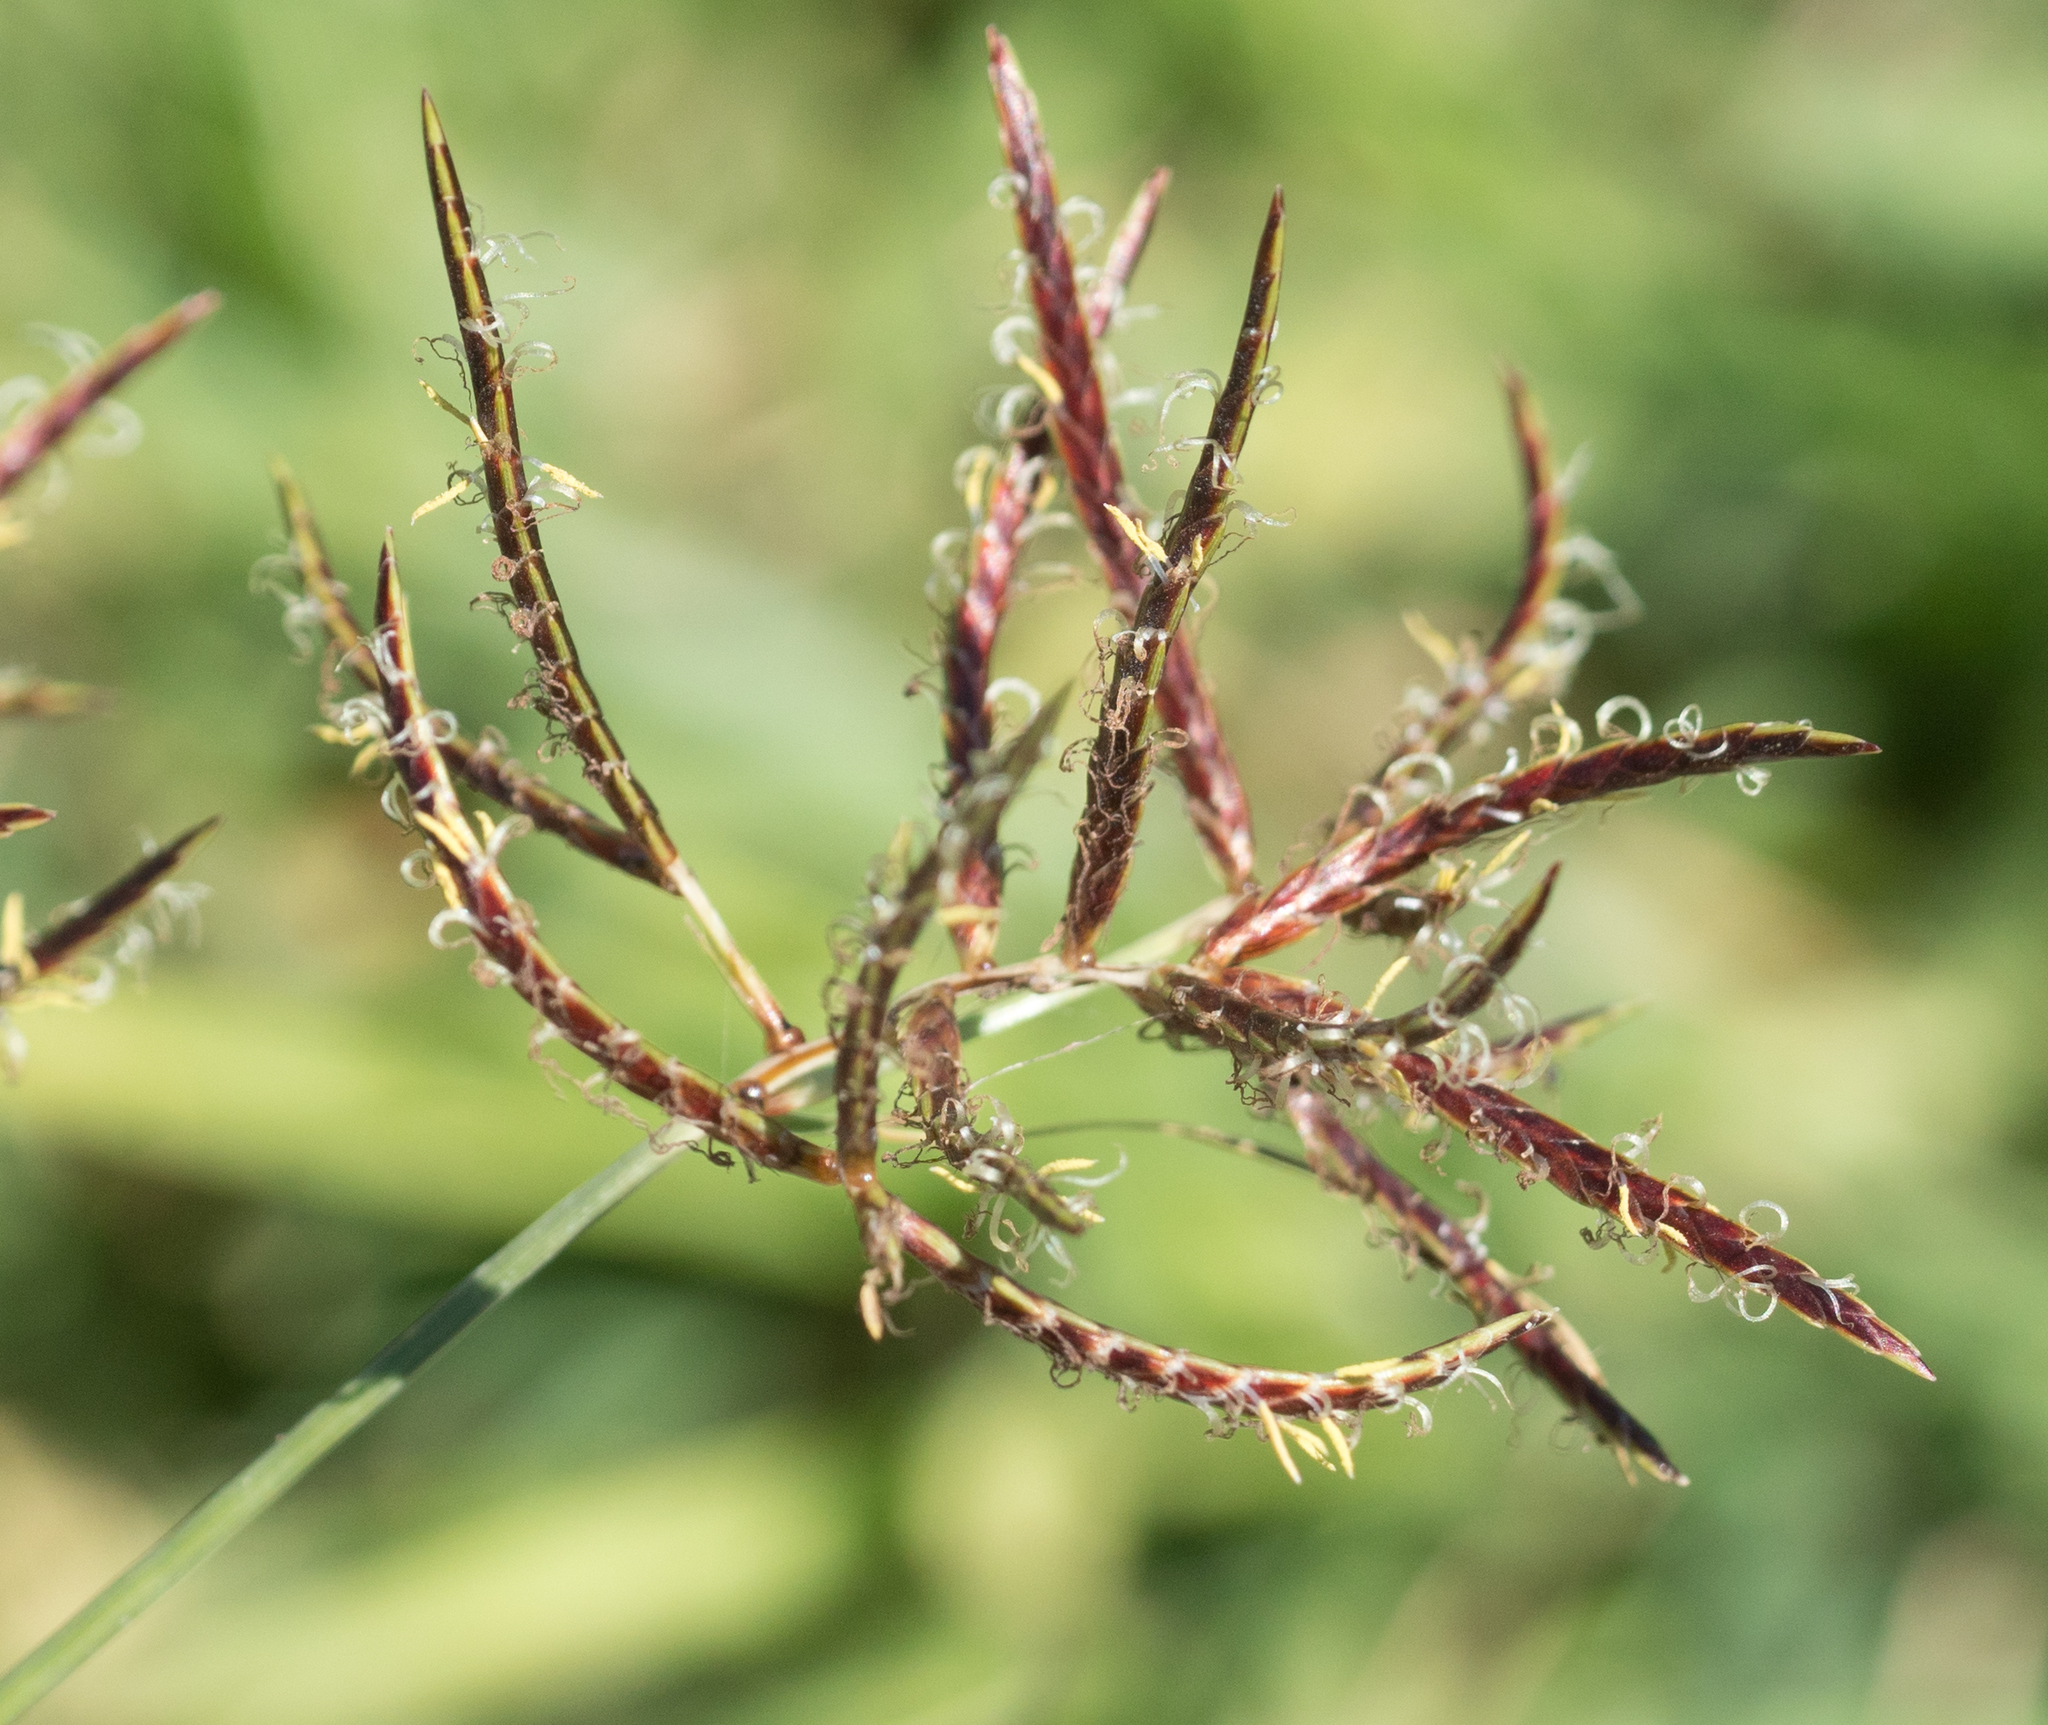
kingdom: Plantae
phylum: Tracheophyta
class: Liliopsida
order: Poales
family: Cyperaceae
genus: Cyperus
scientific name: Cyperus rotundus
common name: Nutgrass
